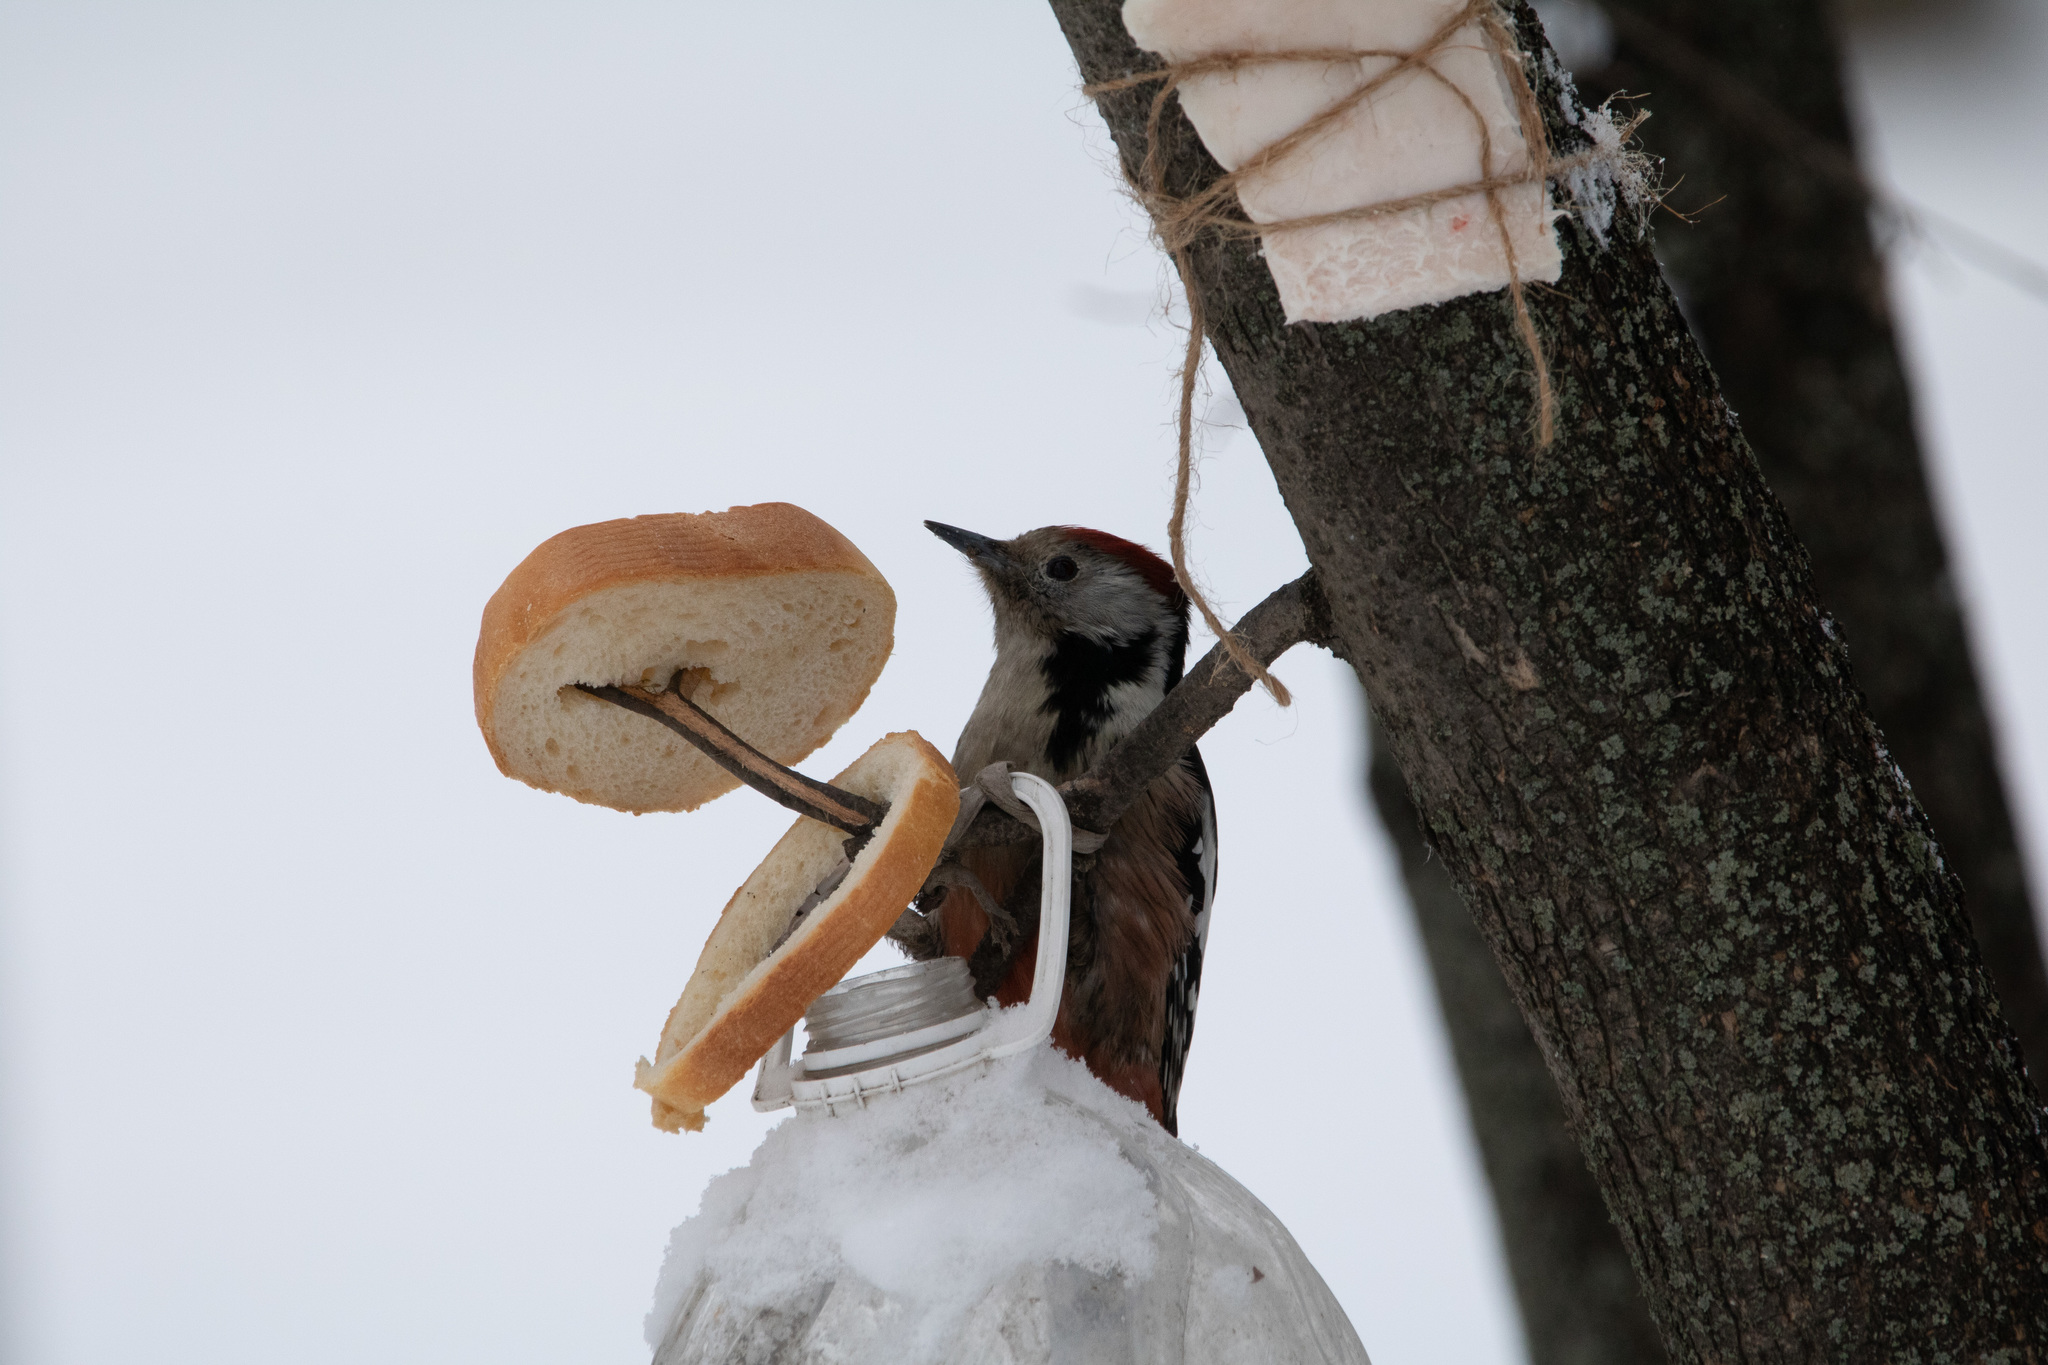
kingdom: Animalia
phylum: Chordata
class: Aves
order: Piciformes
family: Picidae
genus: Dendrocoptes
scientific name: Dendrocoptes medius
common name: Middle spotted woodpecker
